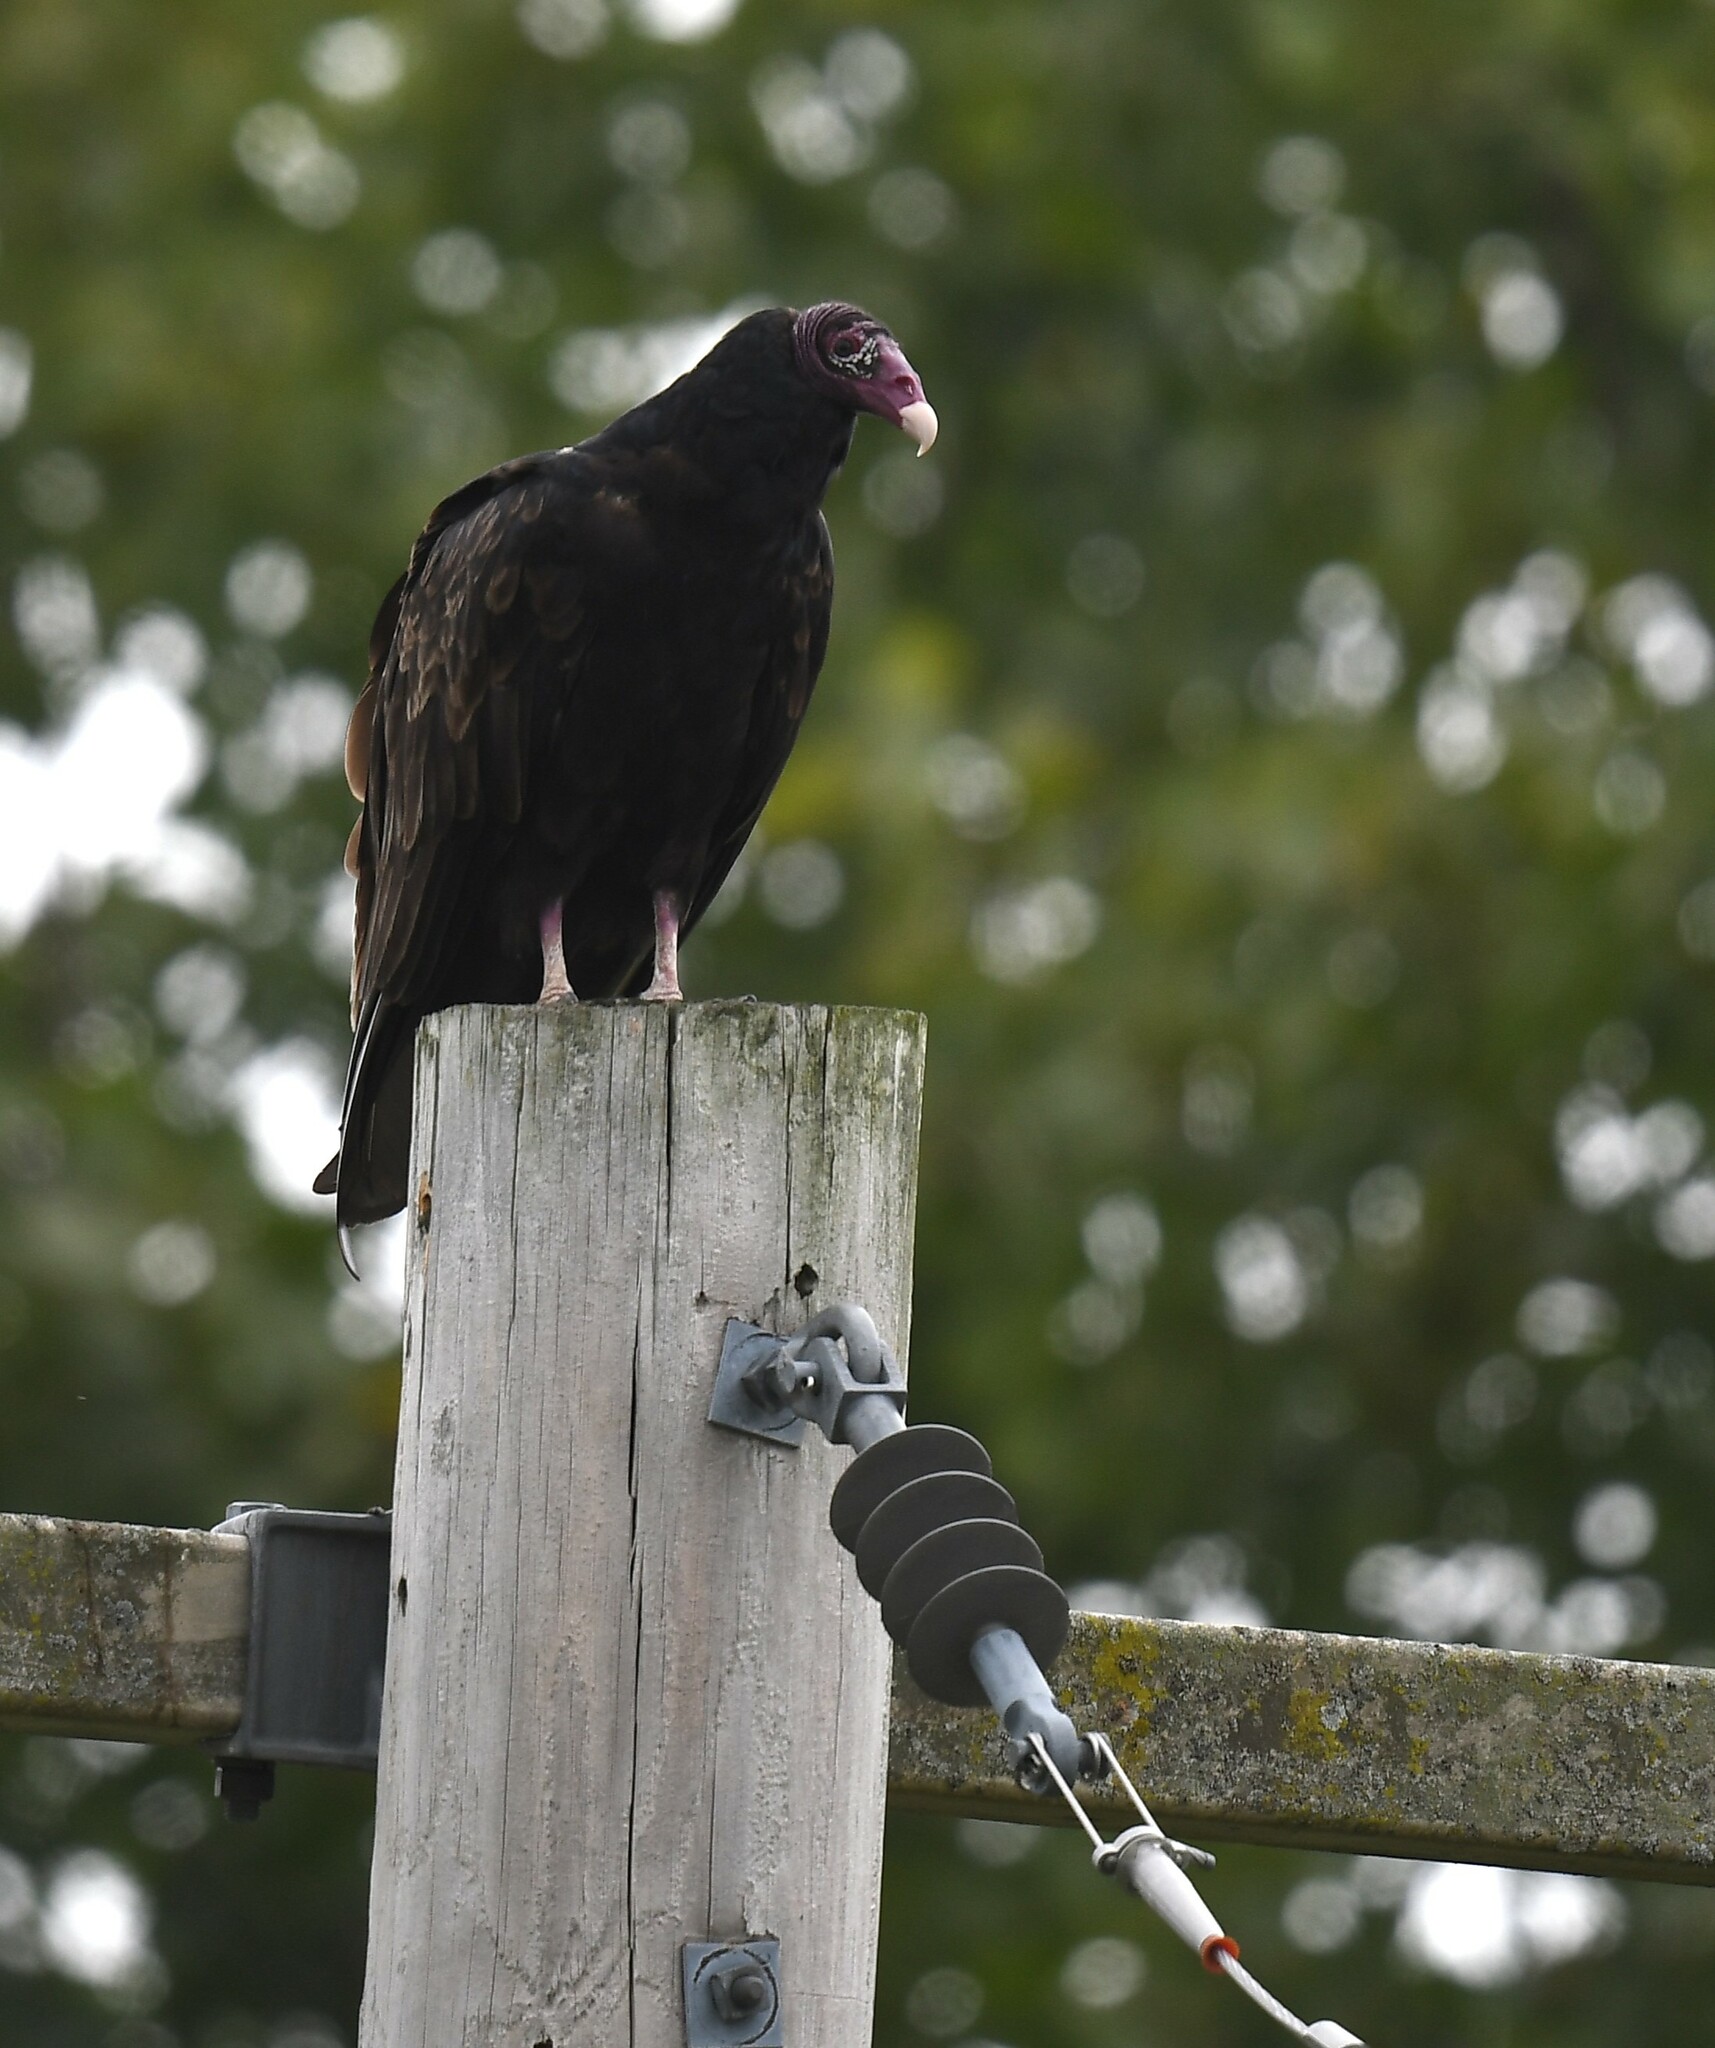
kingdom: Animalia
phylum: Chordata
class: Aves
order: Accipitriformes
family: Cathartidae
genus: Cathartes
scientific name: Cathartes aura
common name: Turkey vulture
